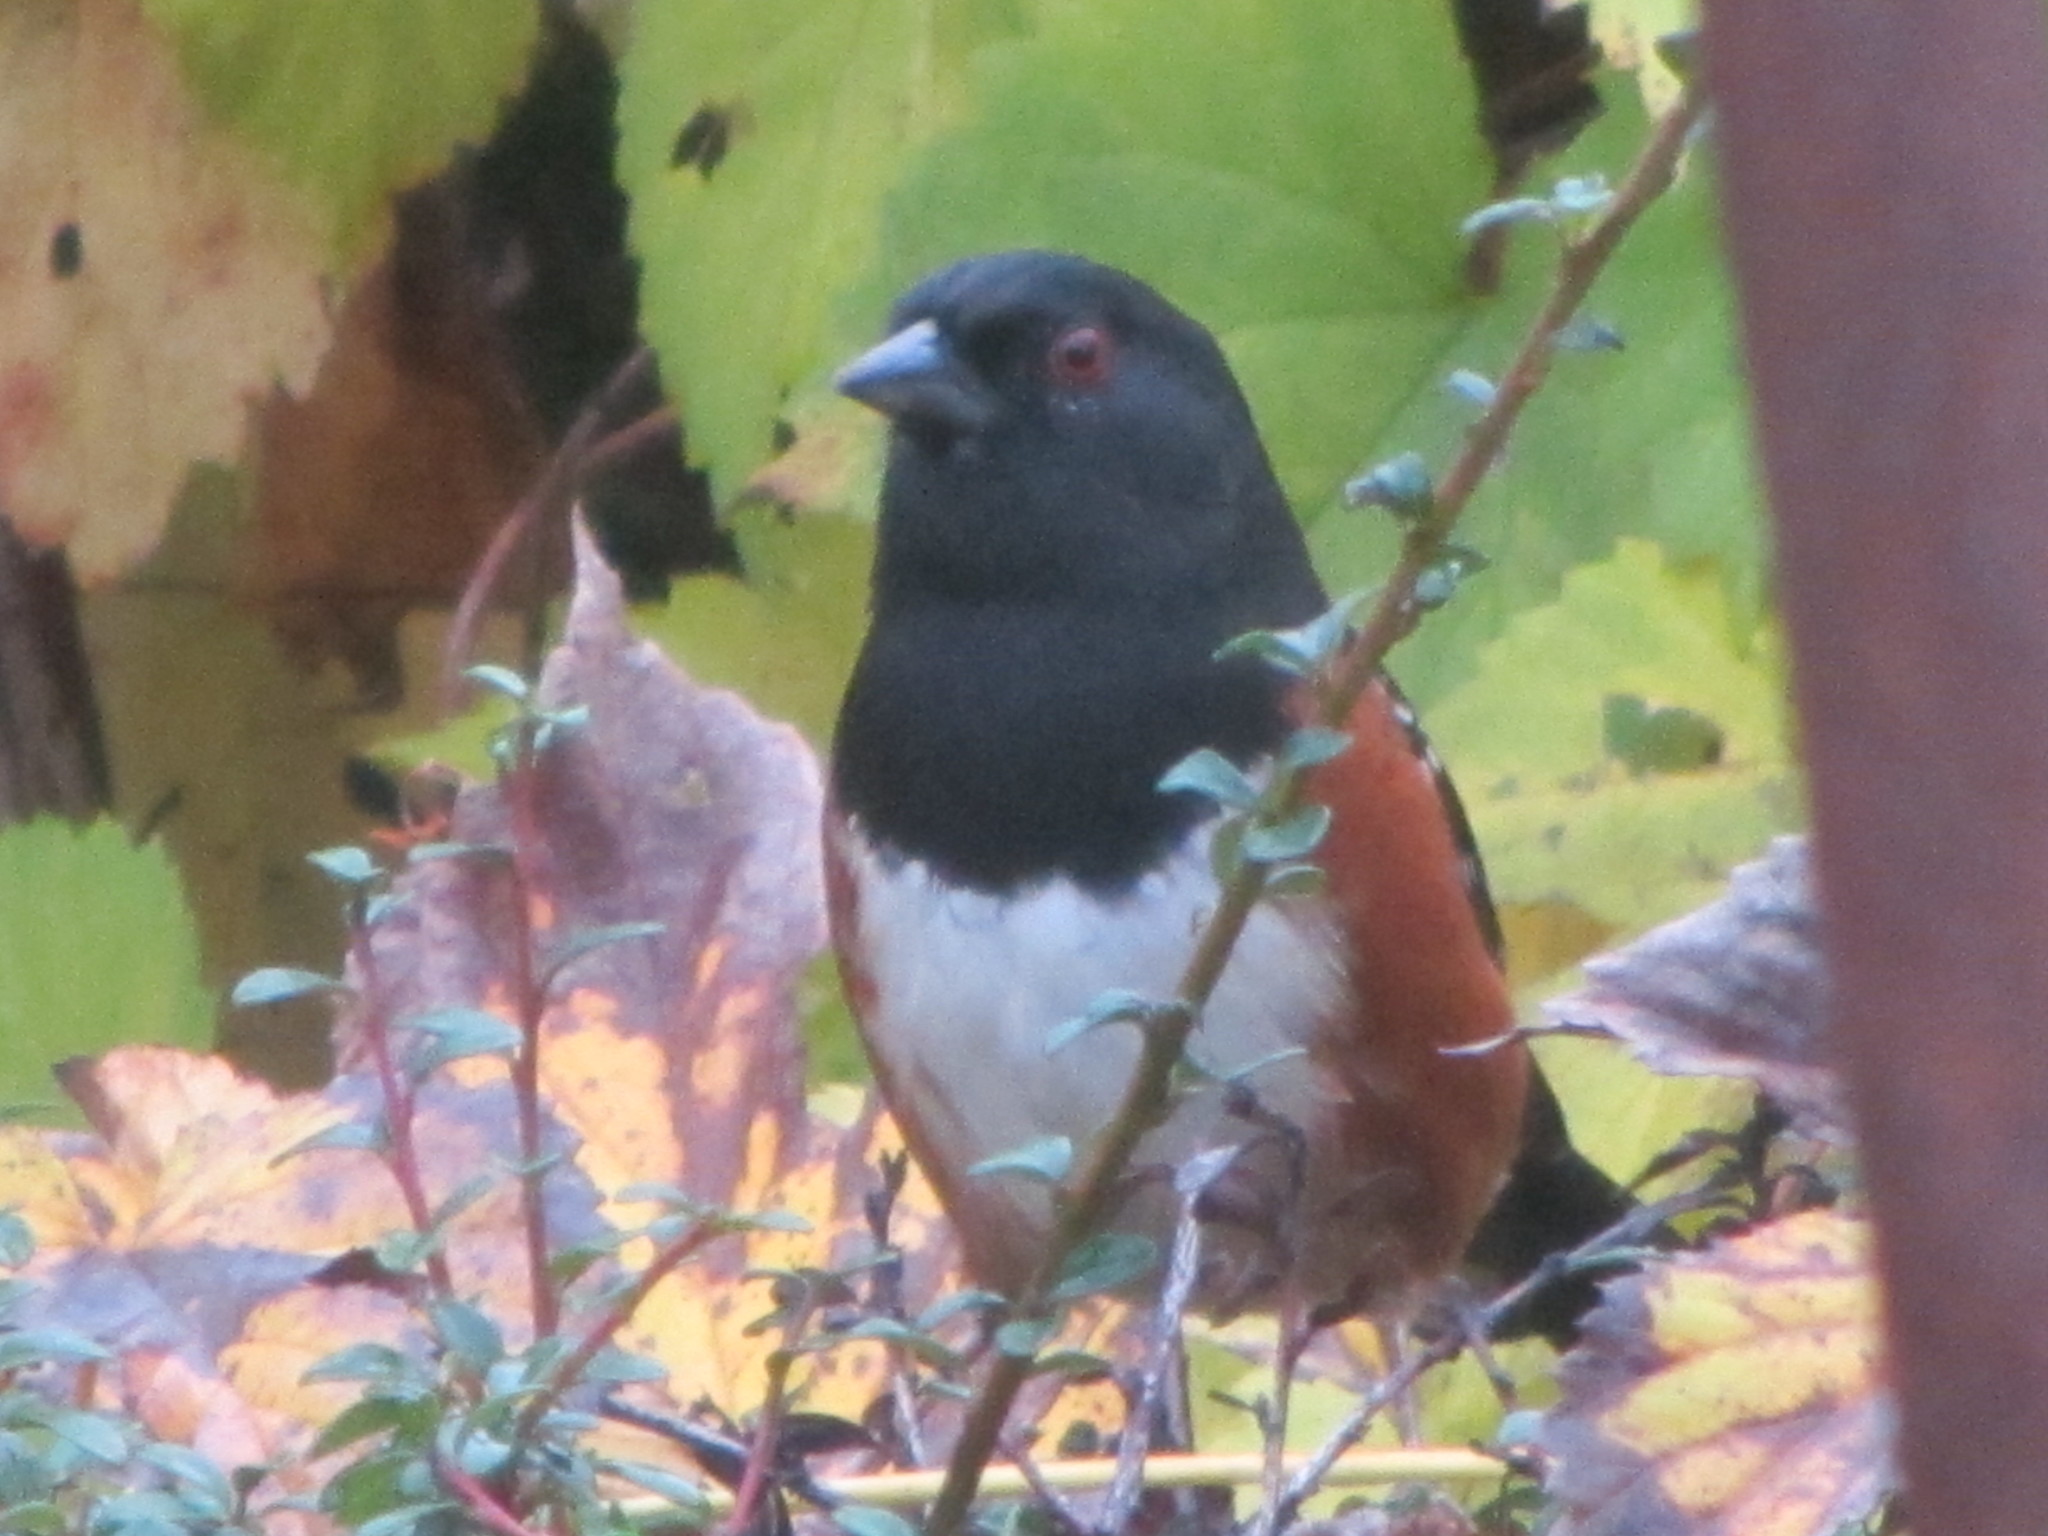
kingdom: Animalia
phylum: Chordata
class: Aves
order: Passeriformes
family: Passerellidae
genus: Pipilo
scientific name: Pipilo maculatus
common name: Spotted towhee
